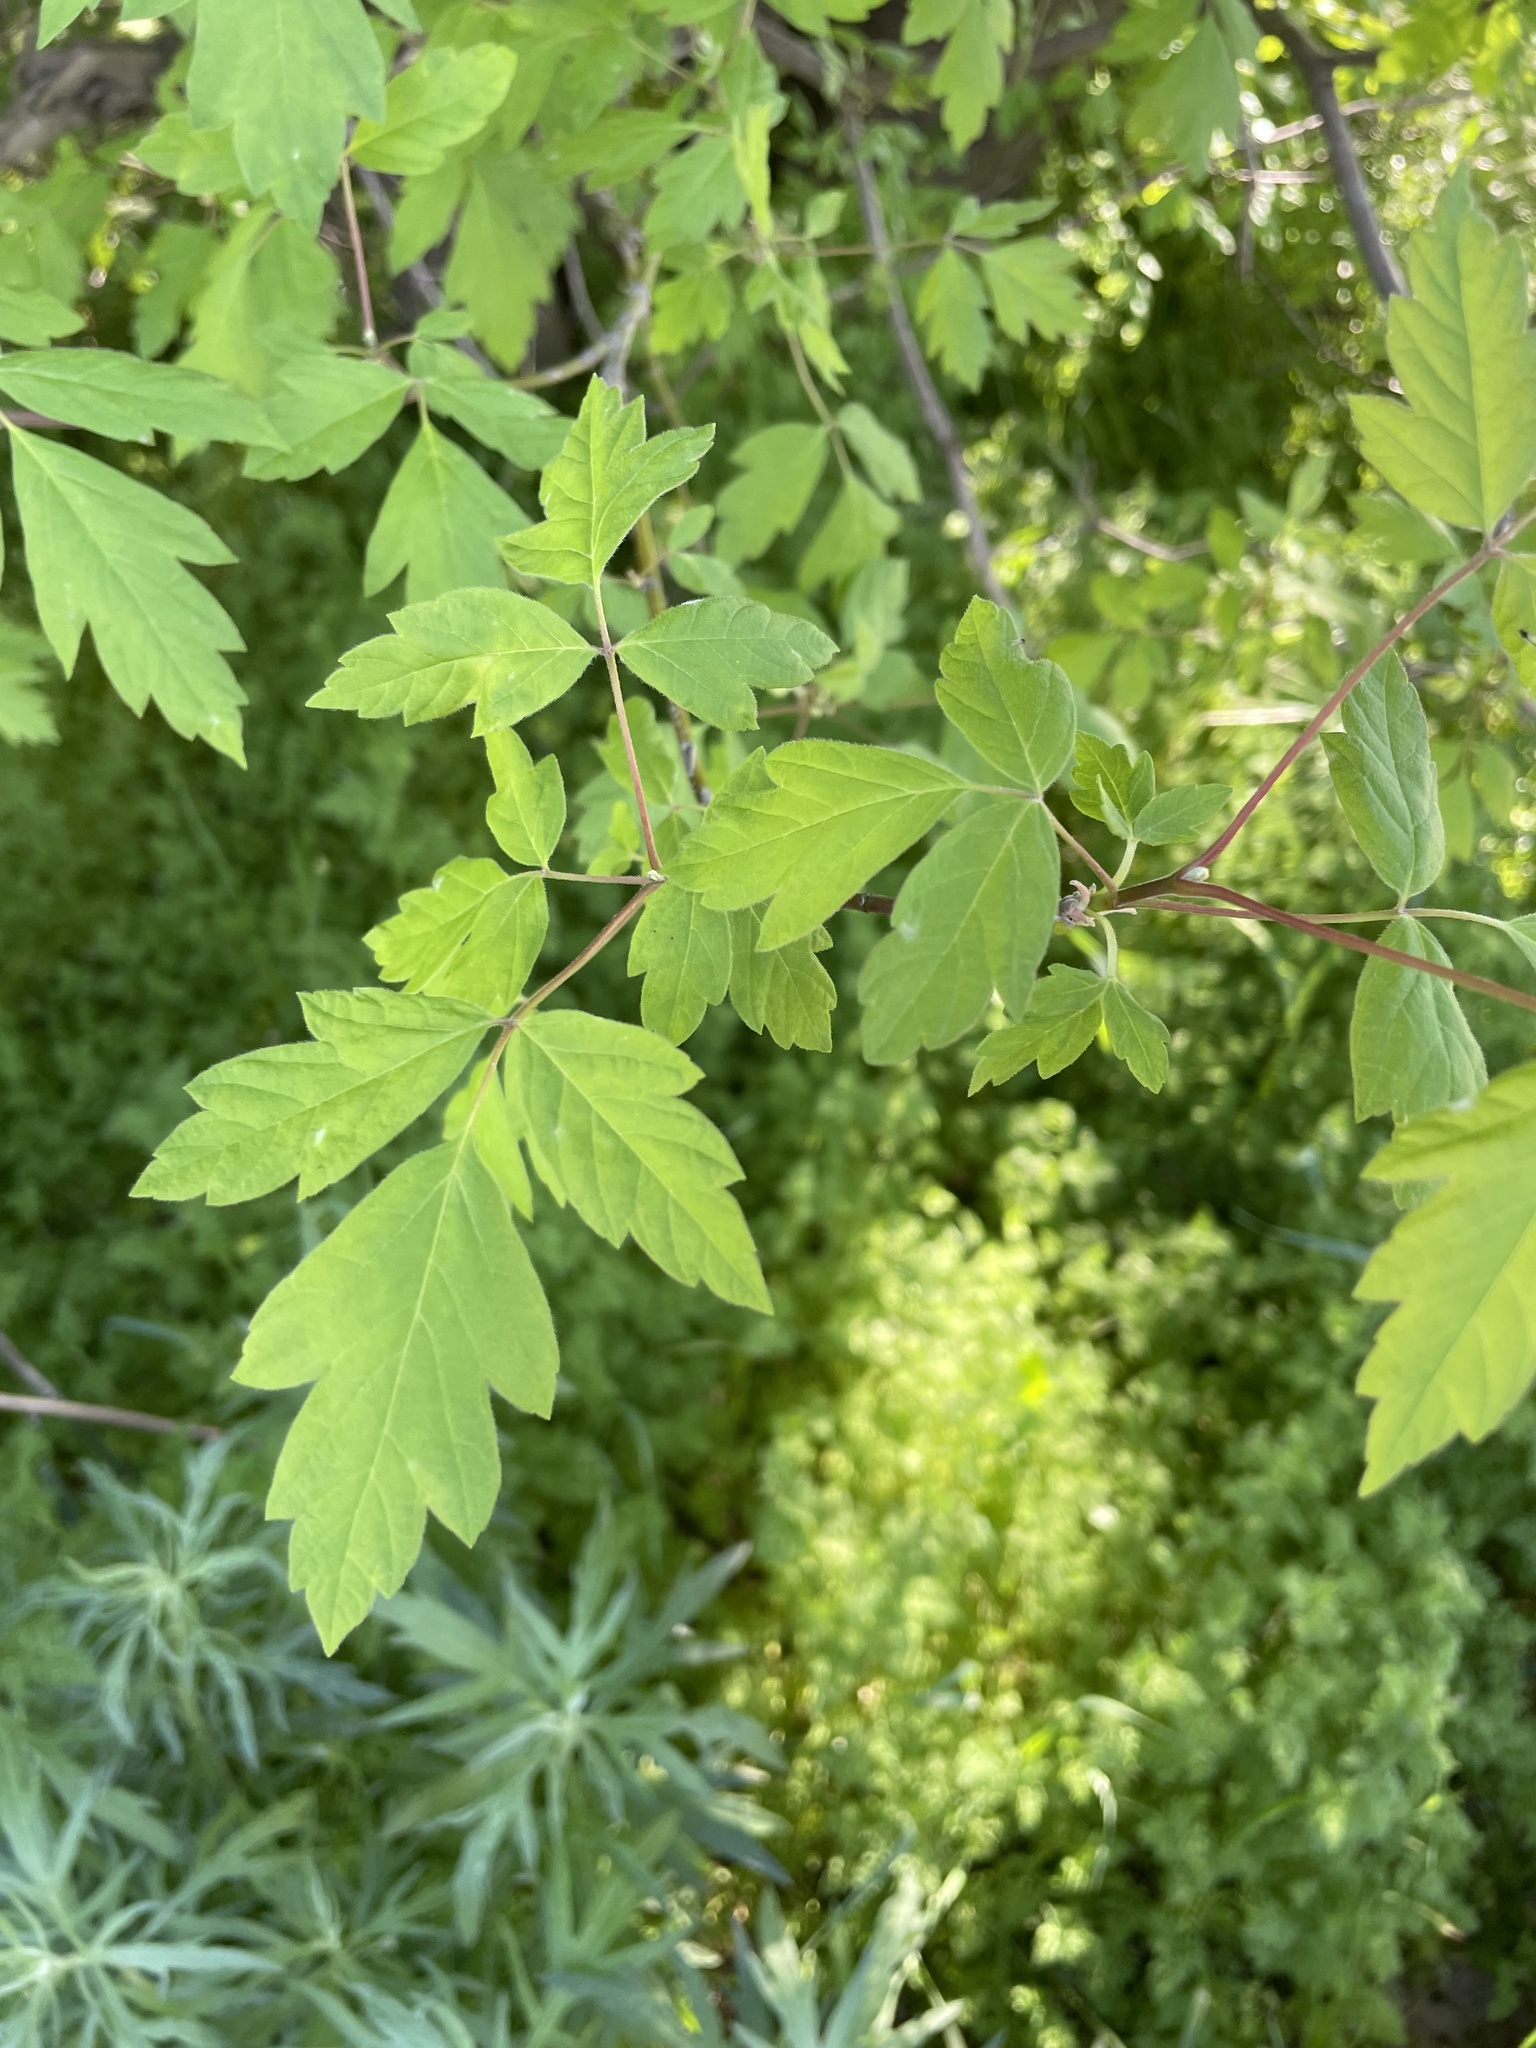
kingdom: Plantae
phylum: Tracheophyta
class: Magnoliopsida
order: Sapindales
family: Sapindaceae
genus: Acer
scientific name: Acer negundo
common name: Ashleaf maple
